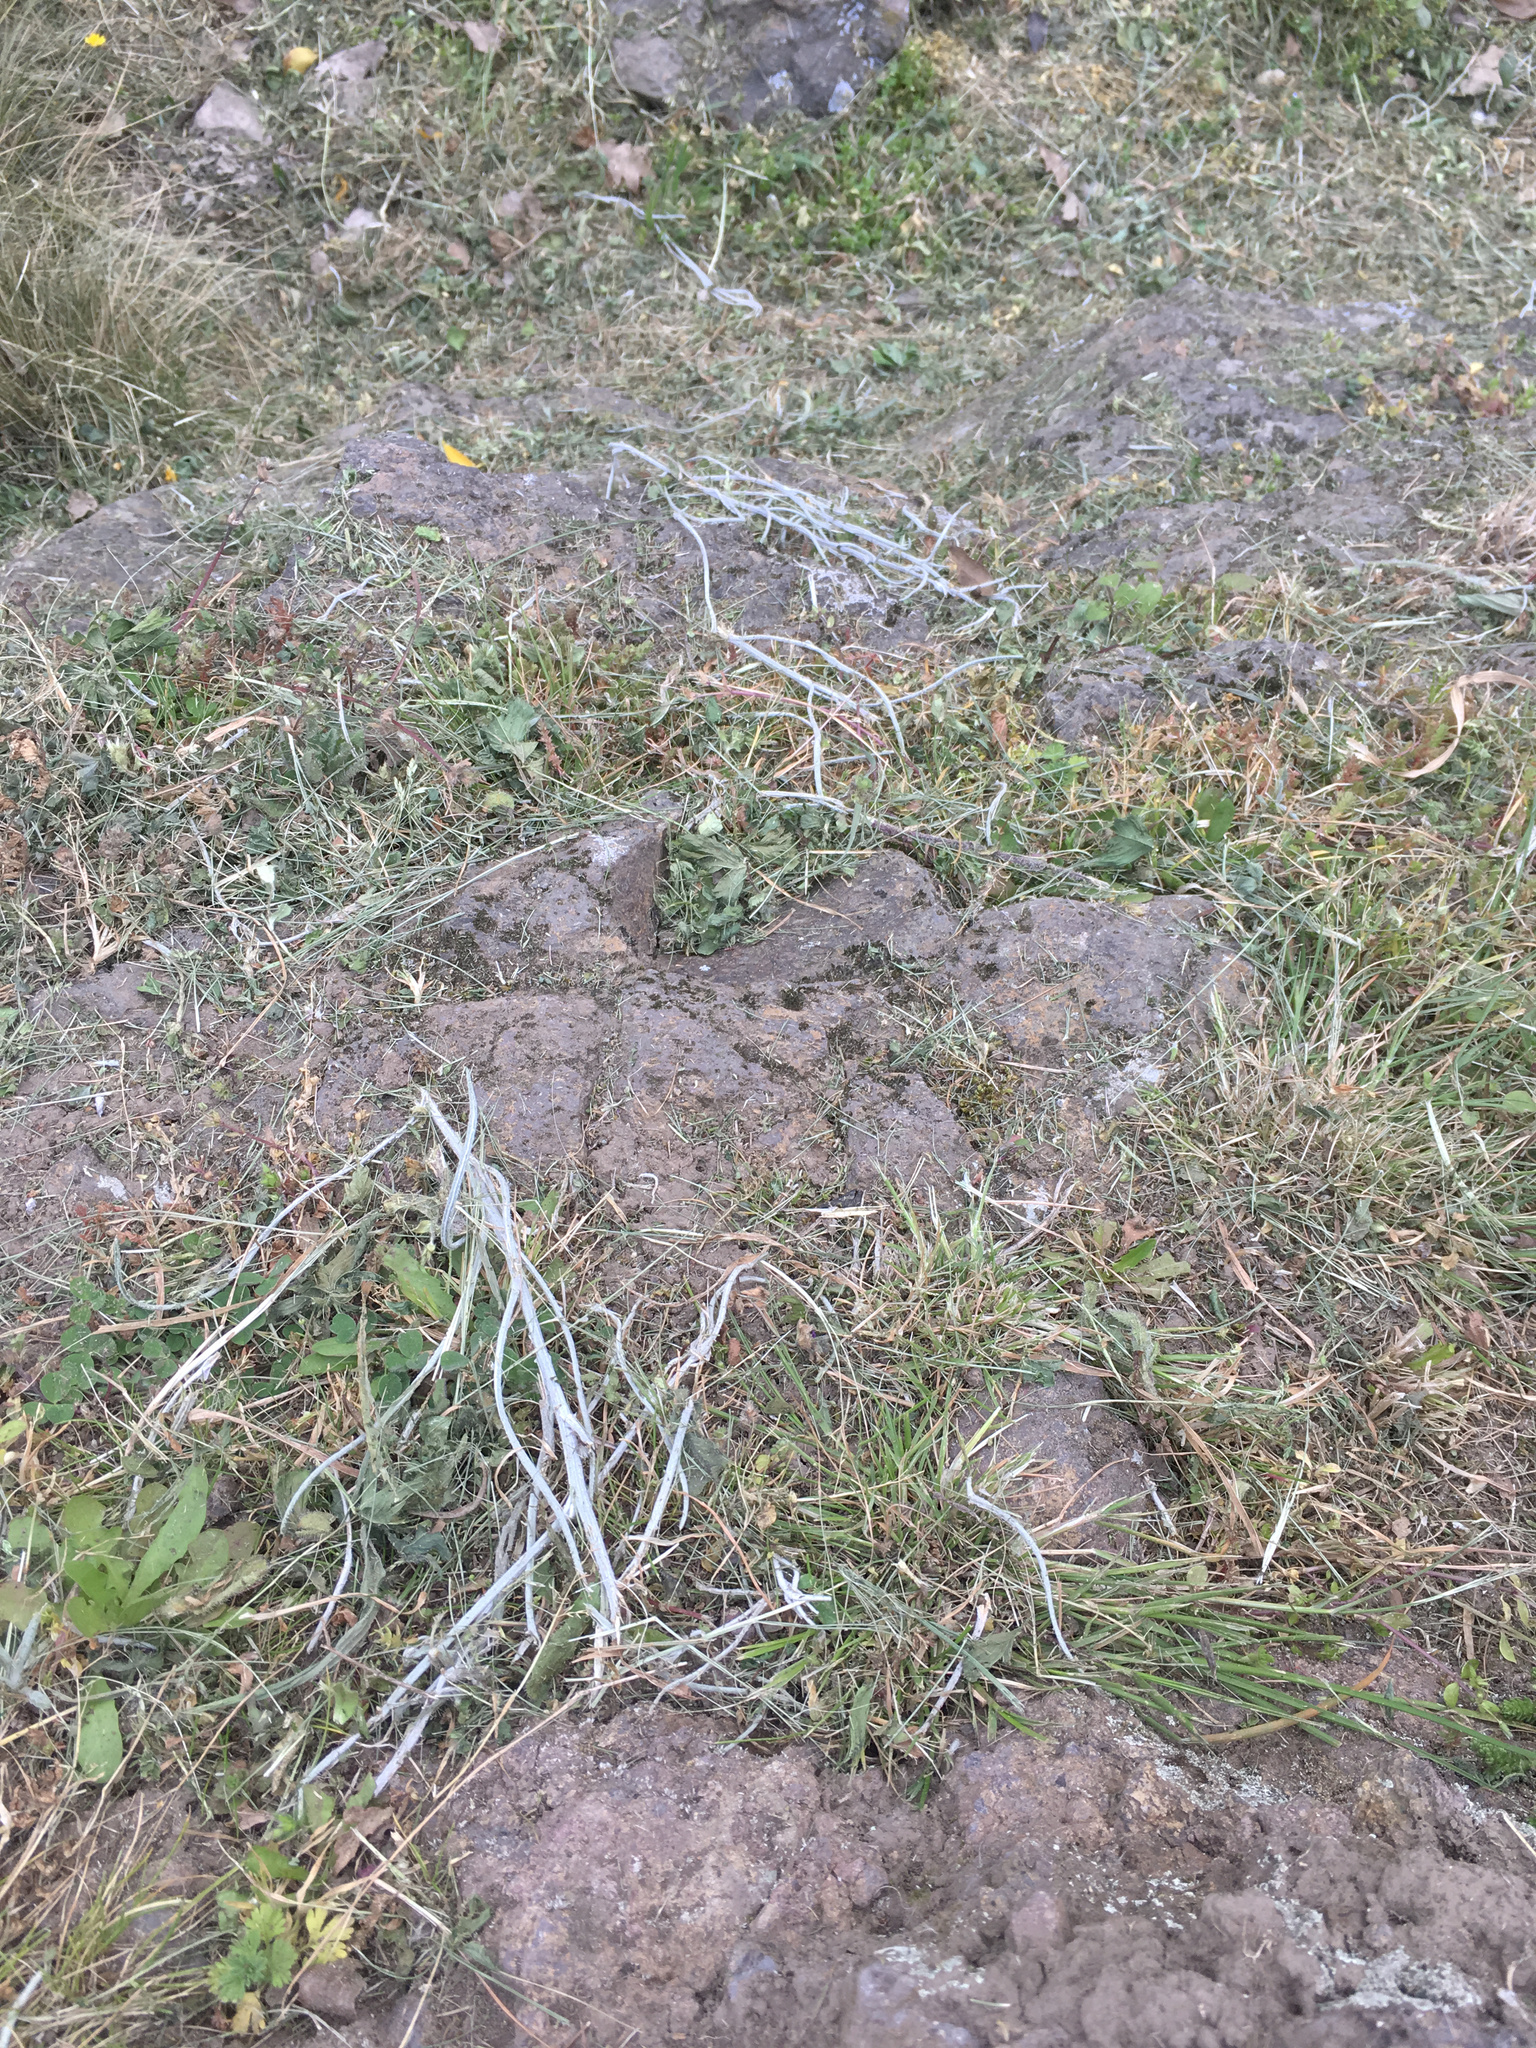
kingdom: Plantae
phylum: Tracheophyta
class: Magnoliopsida
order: Asterales
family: Asteraceae
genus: Senecio
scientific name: Senecio quadridentatus
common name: Cotton fireweed
